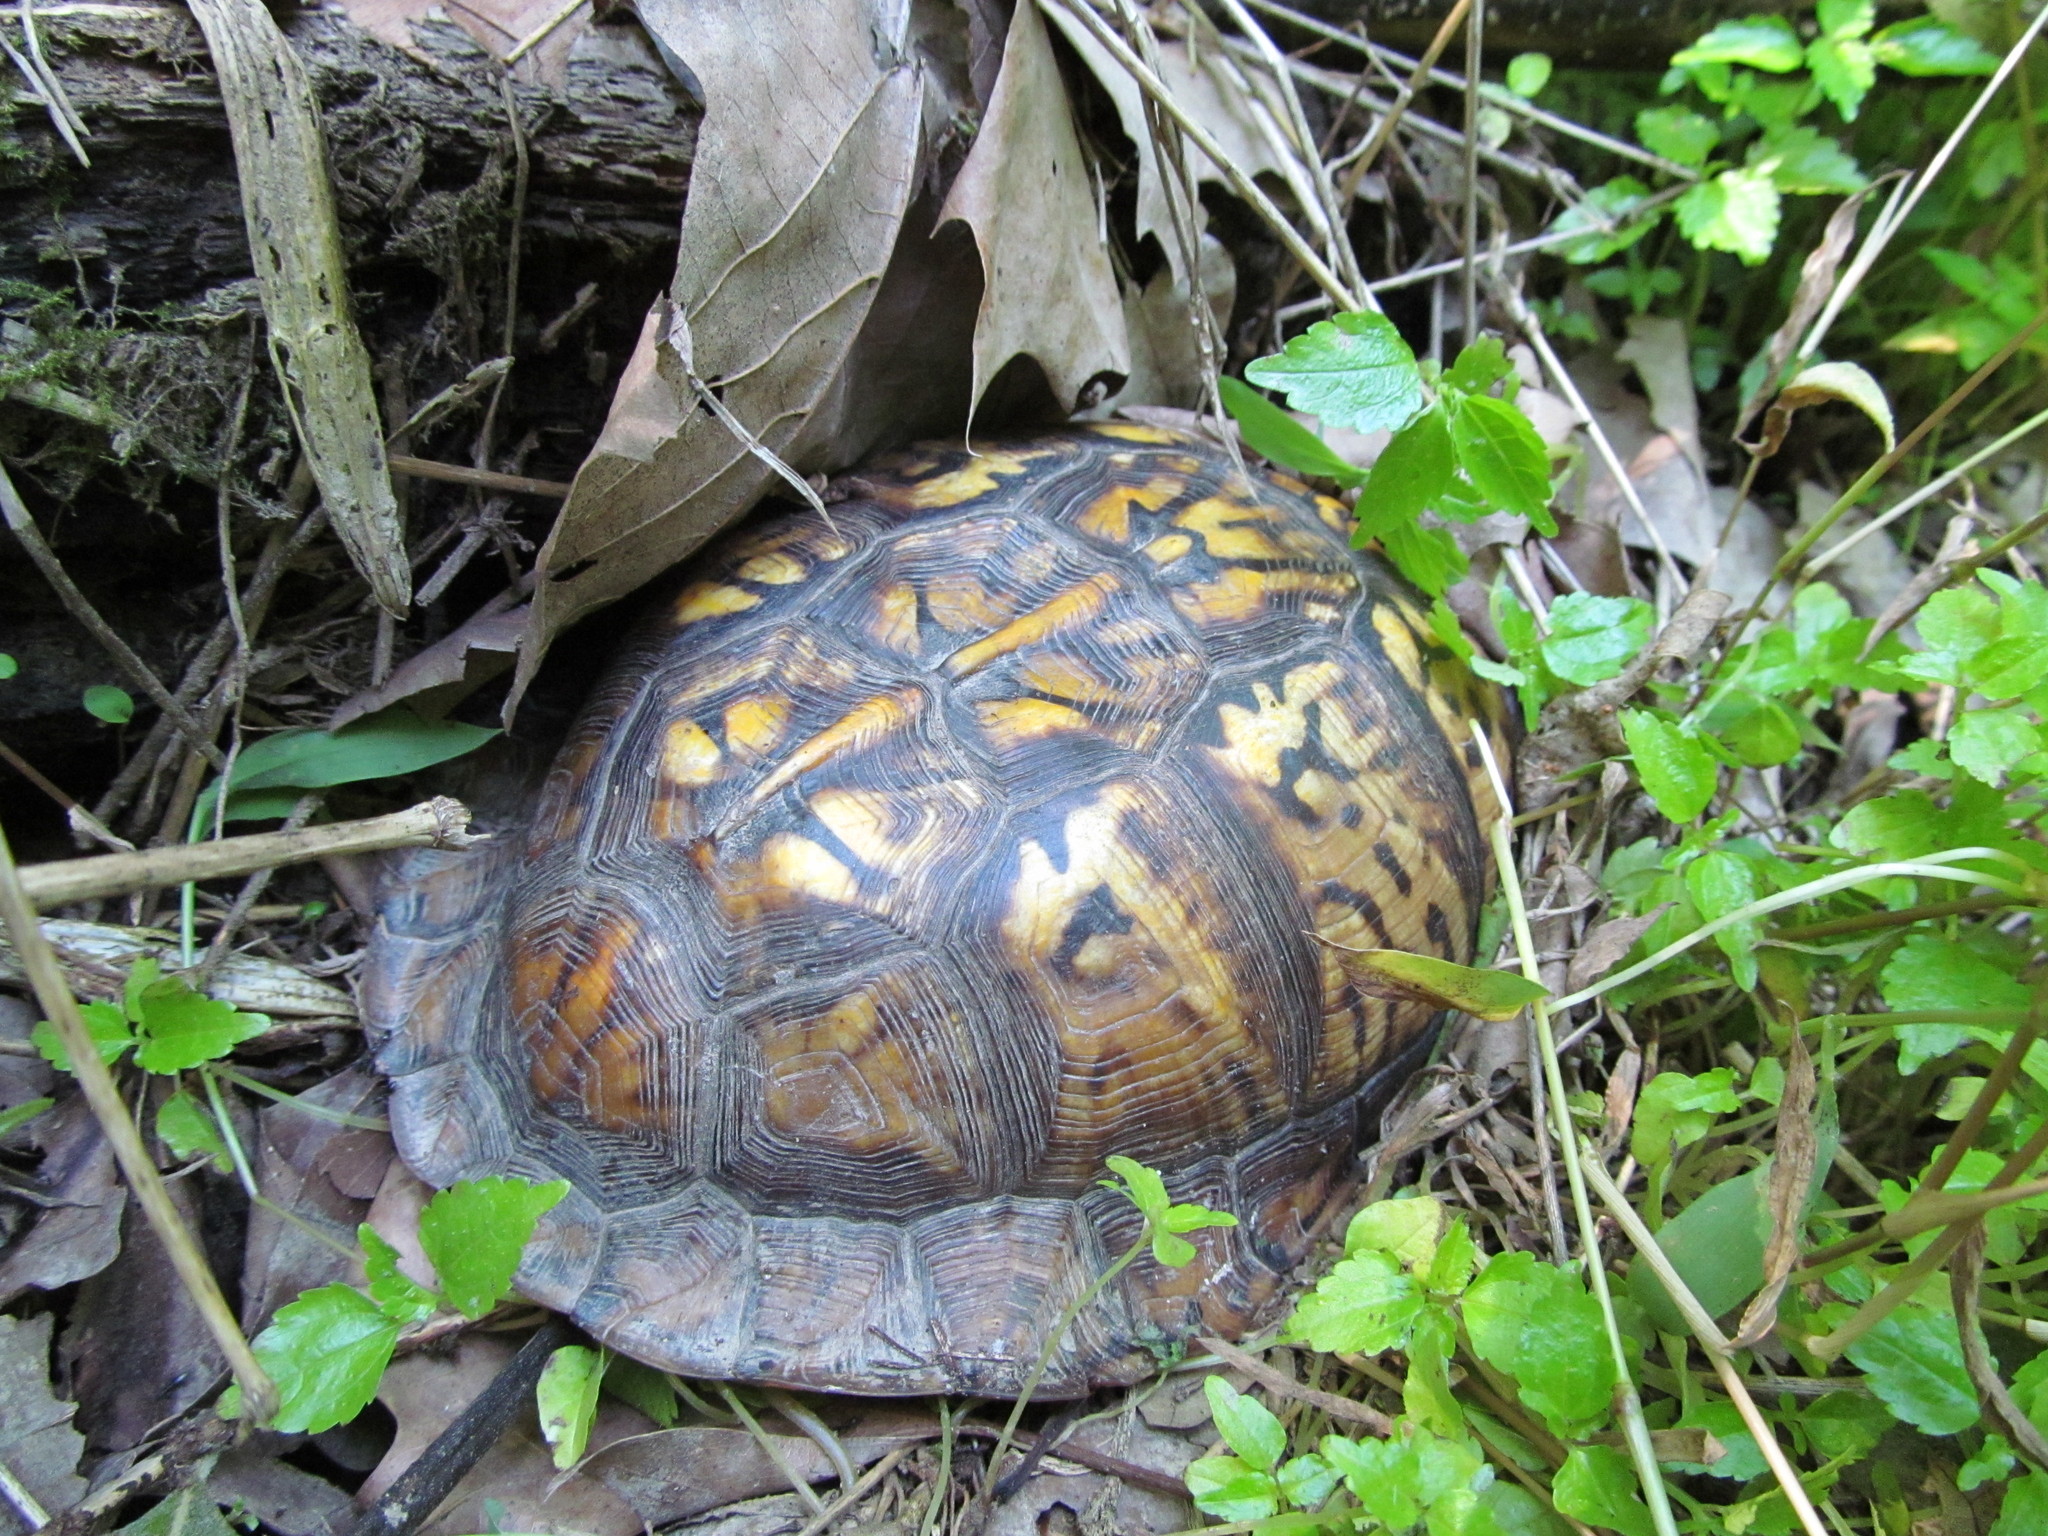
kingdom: Animalia
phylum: Chordata
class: Testudines
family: Emydidae
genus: Terrapene
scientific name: Terrapene carolina
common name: Common box turtle
